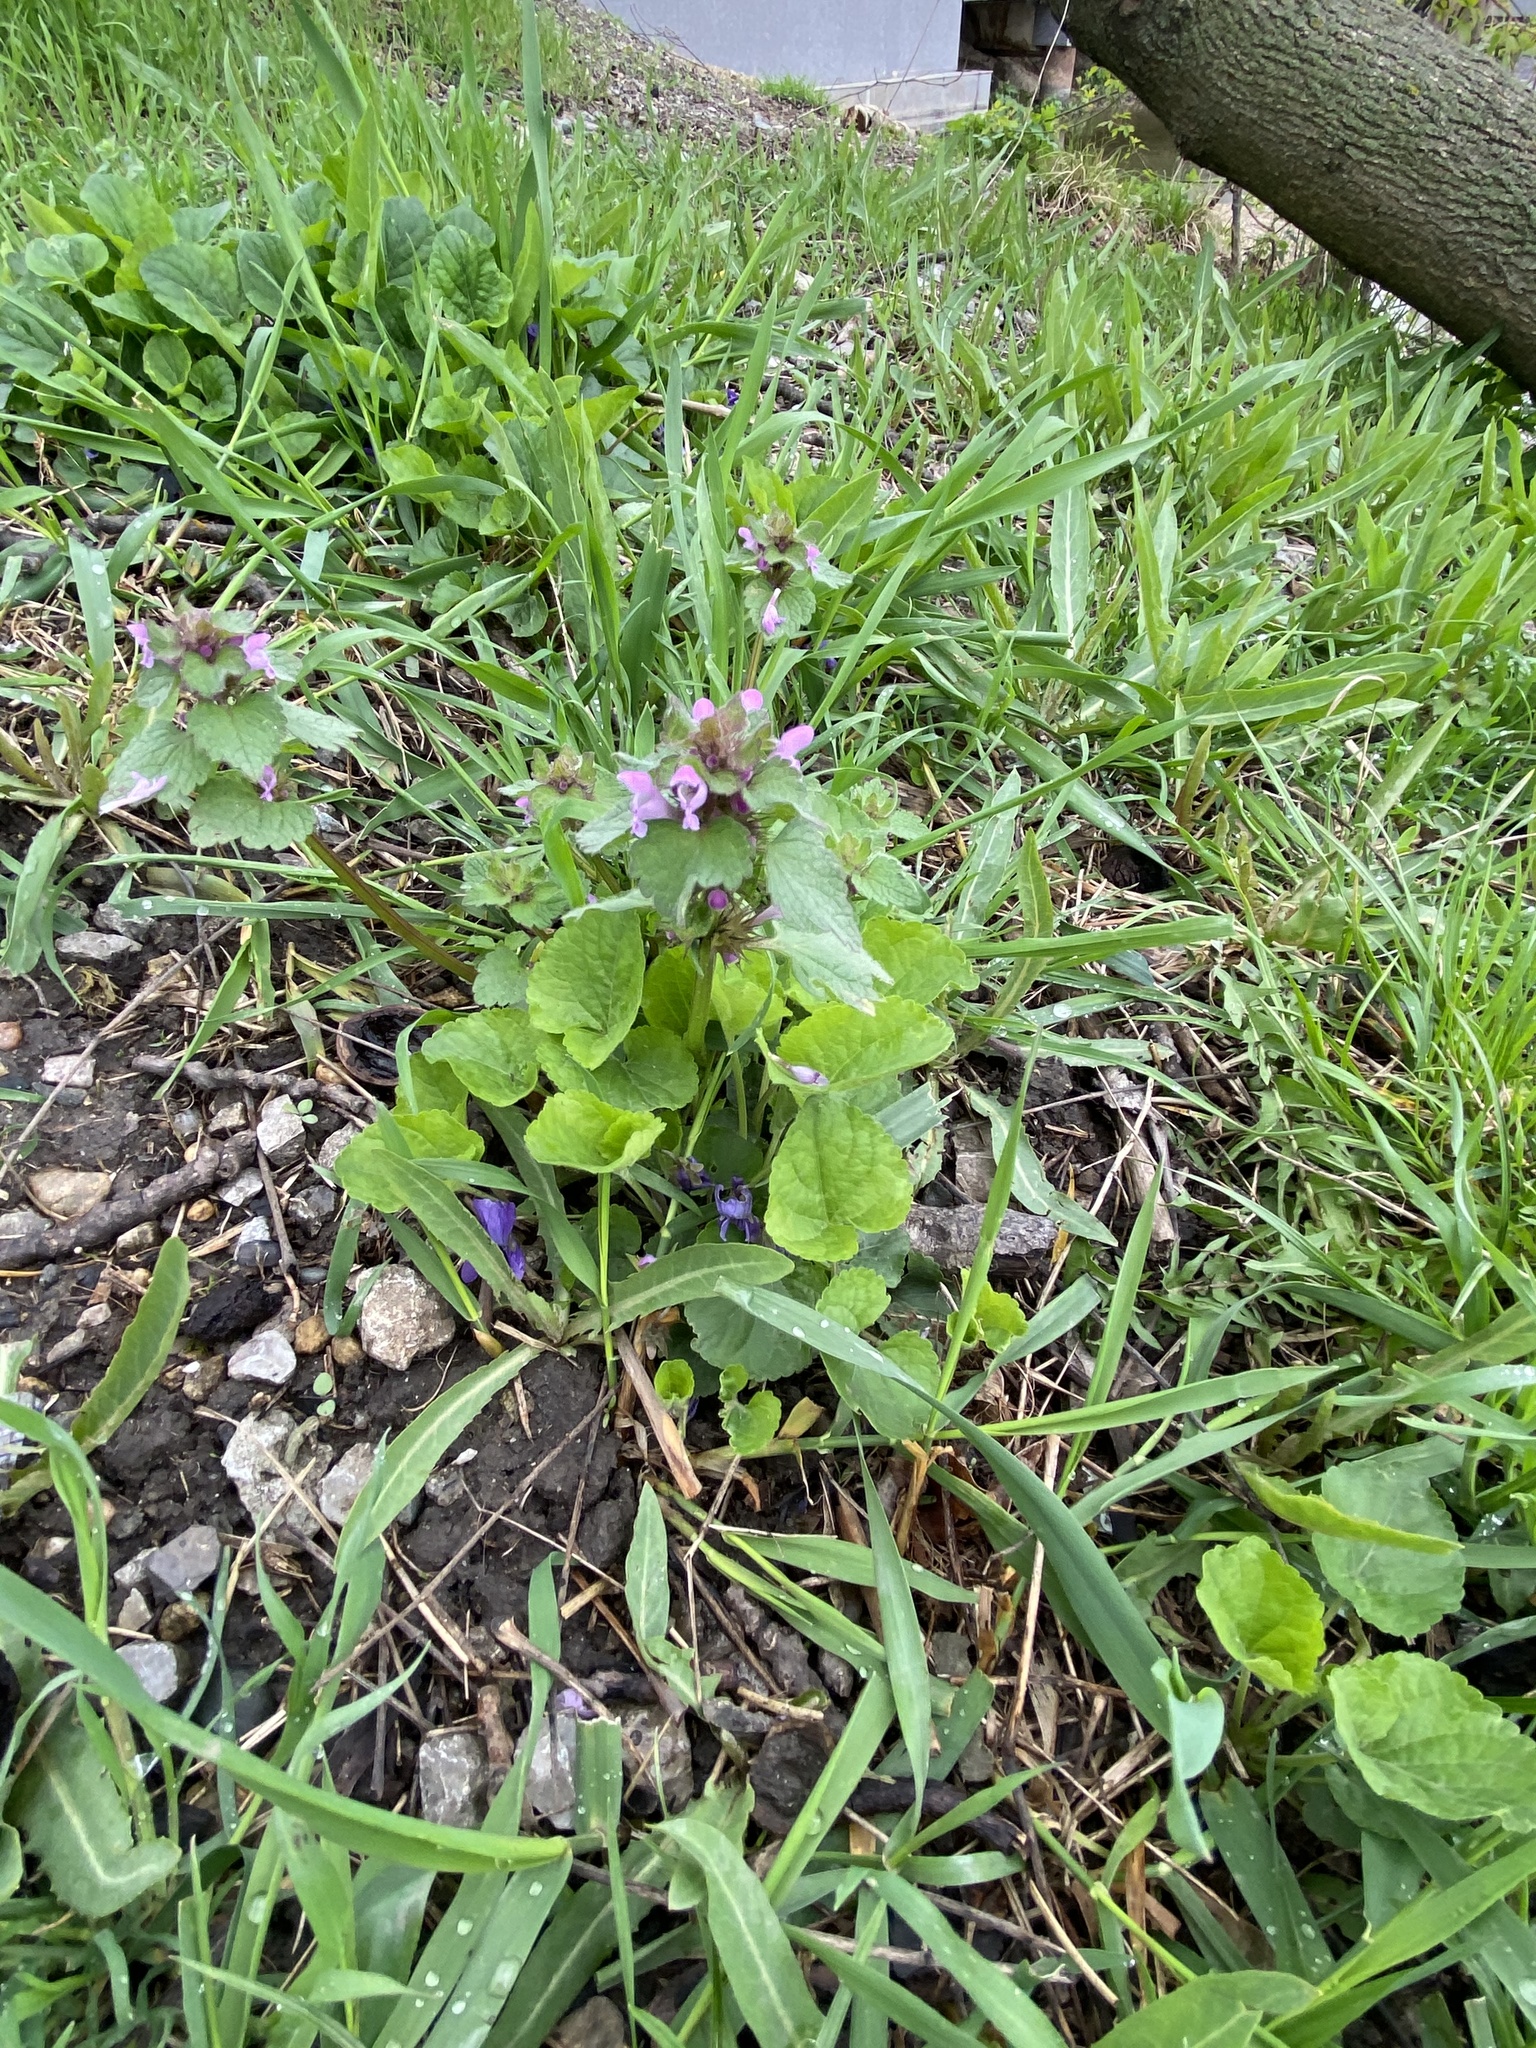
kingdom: Plantae
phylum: Tracheophyta
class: Magnoliopsida
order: Lamiales
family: Lamiaceae
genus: Lamium
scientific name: Lamium purpureum
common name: Red dead-nettle
